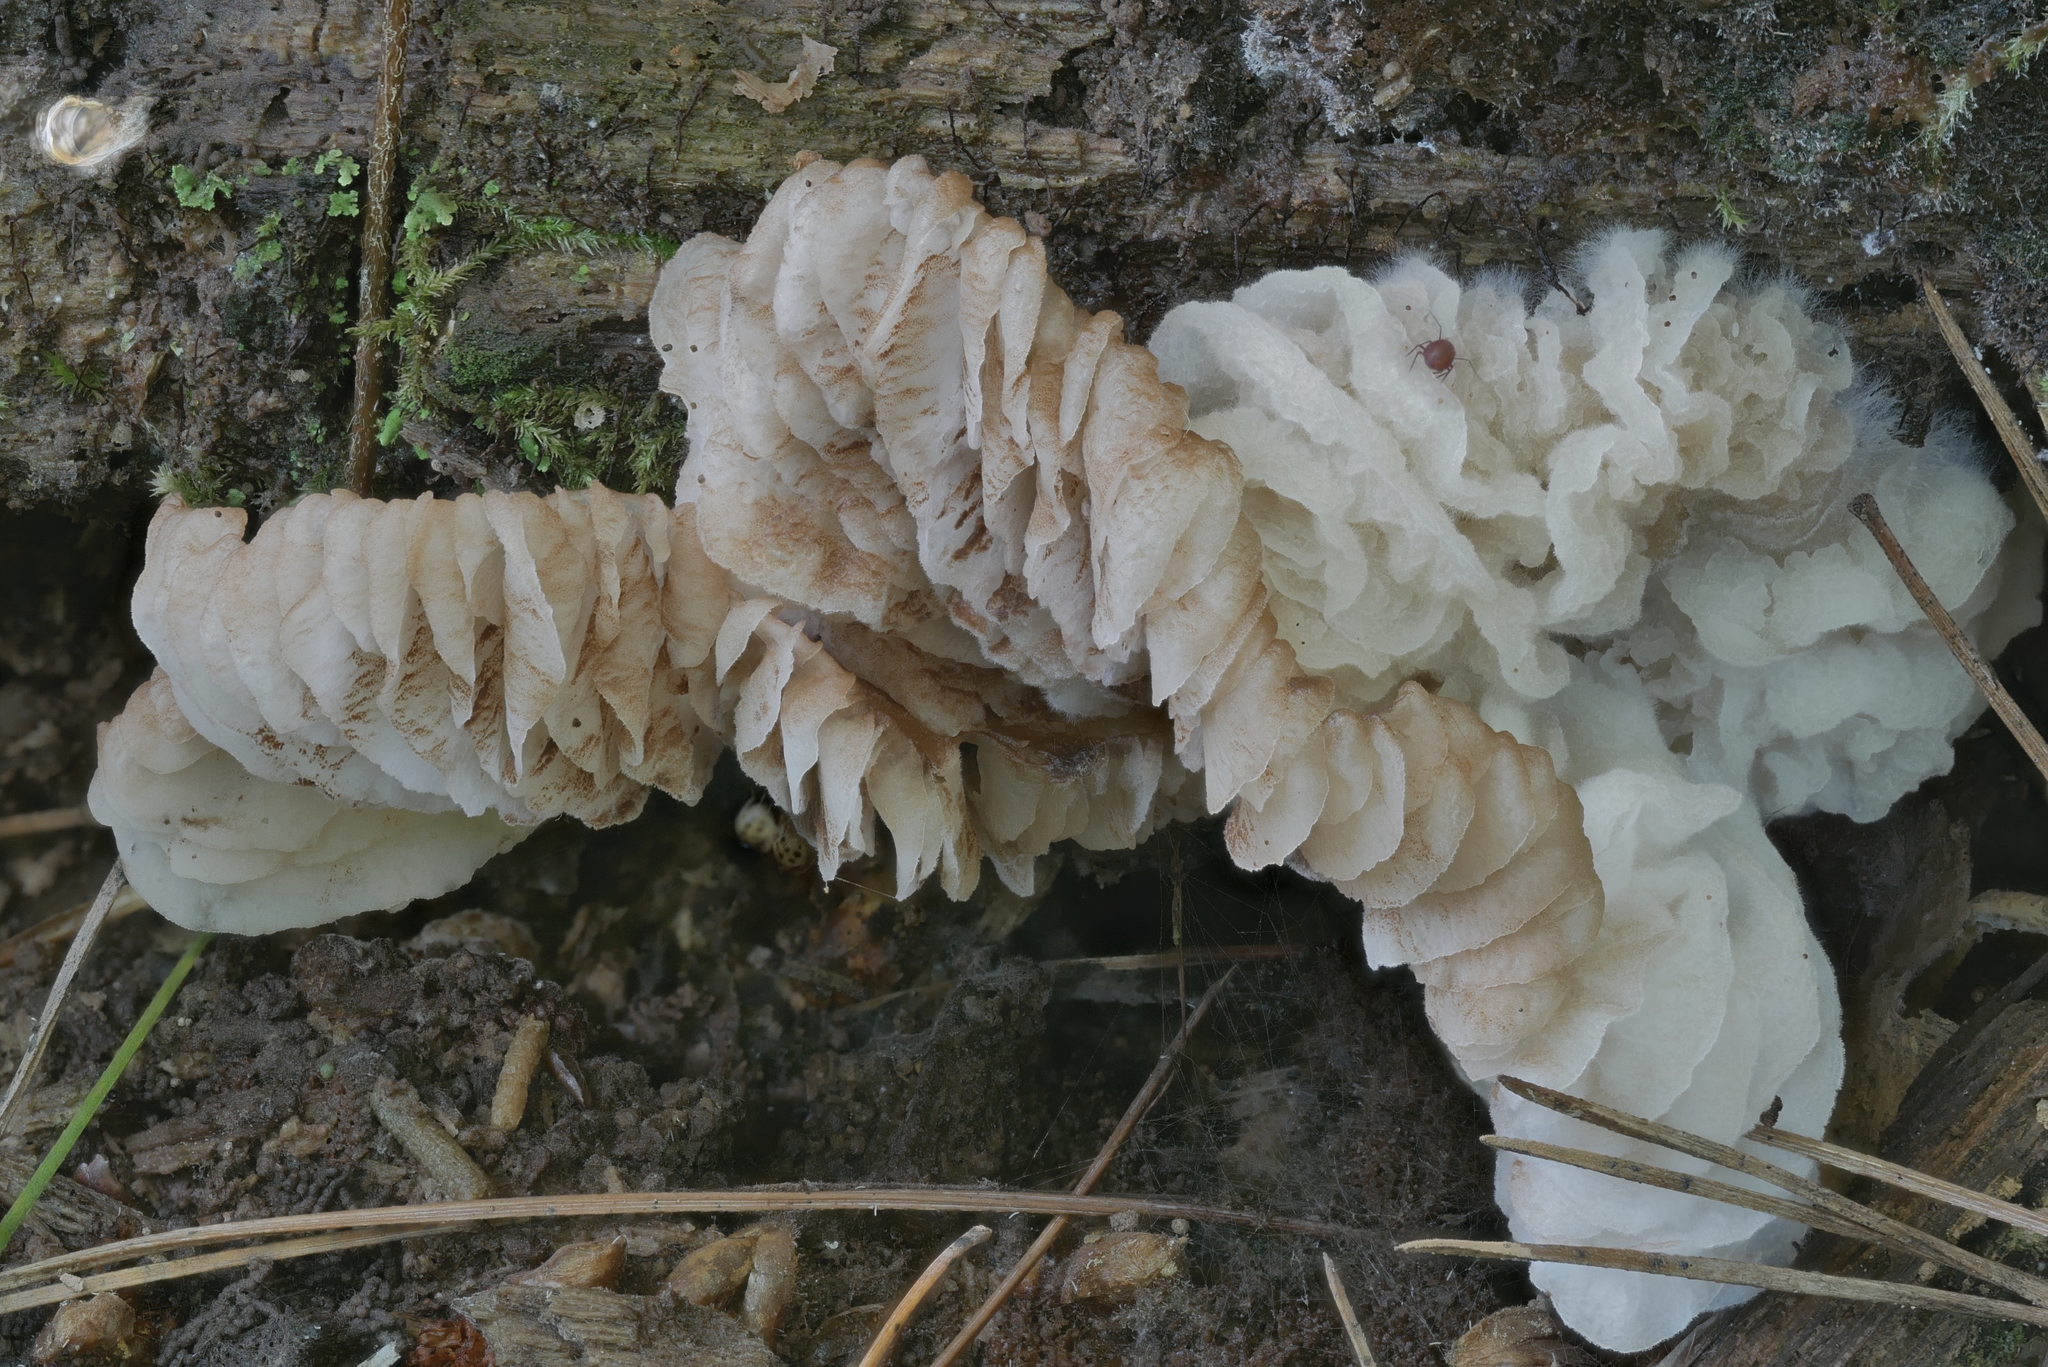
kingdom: Fungi
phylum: Ascomycota
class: Sordariomycetes
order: Hypocreales
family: Bionectriaceae
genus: Nectriopsis
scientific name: Nectriopsis tremellicola
